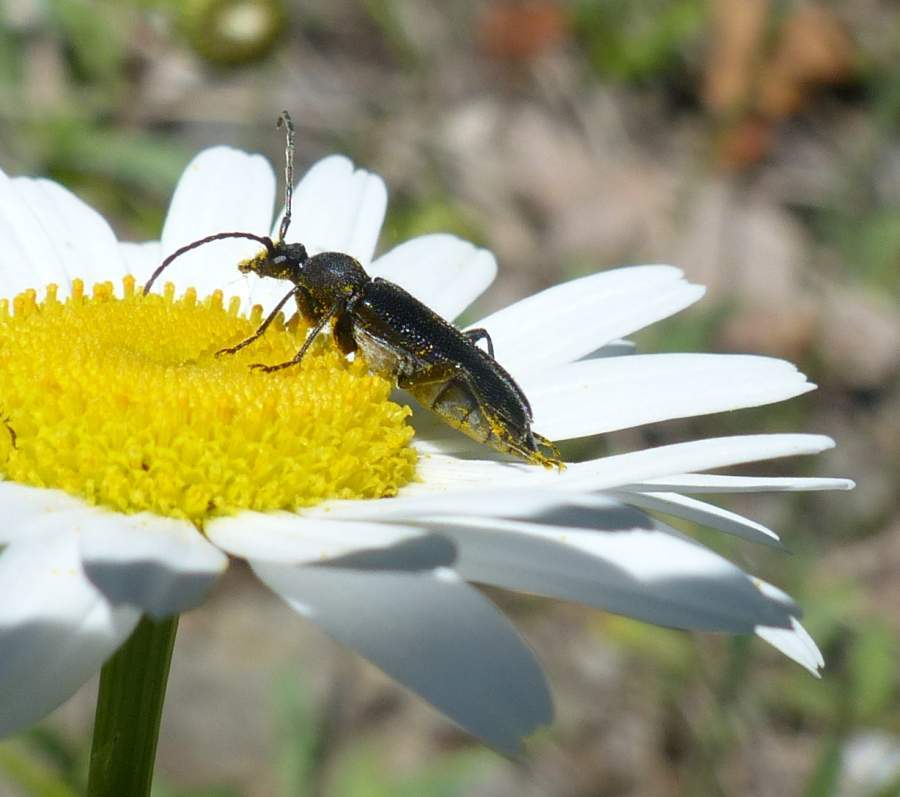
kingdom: Animalia
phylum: Arthropoda
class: Insecta
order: Coleoptera
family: Cerambycidae
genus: Anoplodera
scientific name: Anoplodera pubera
